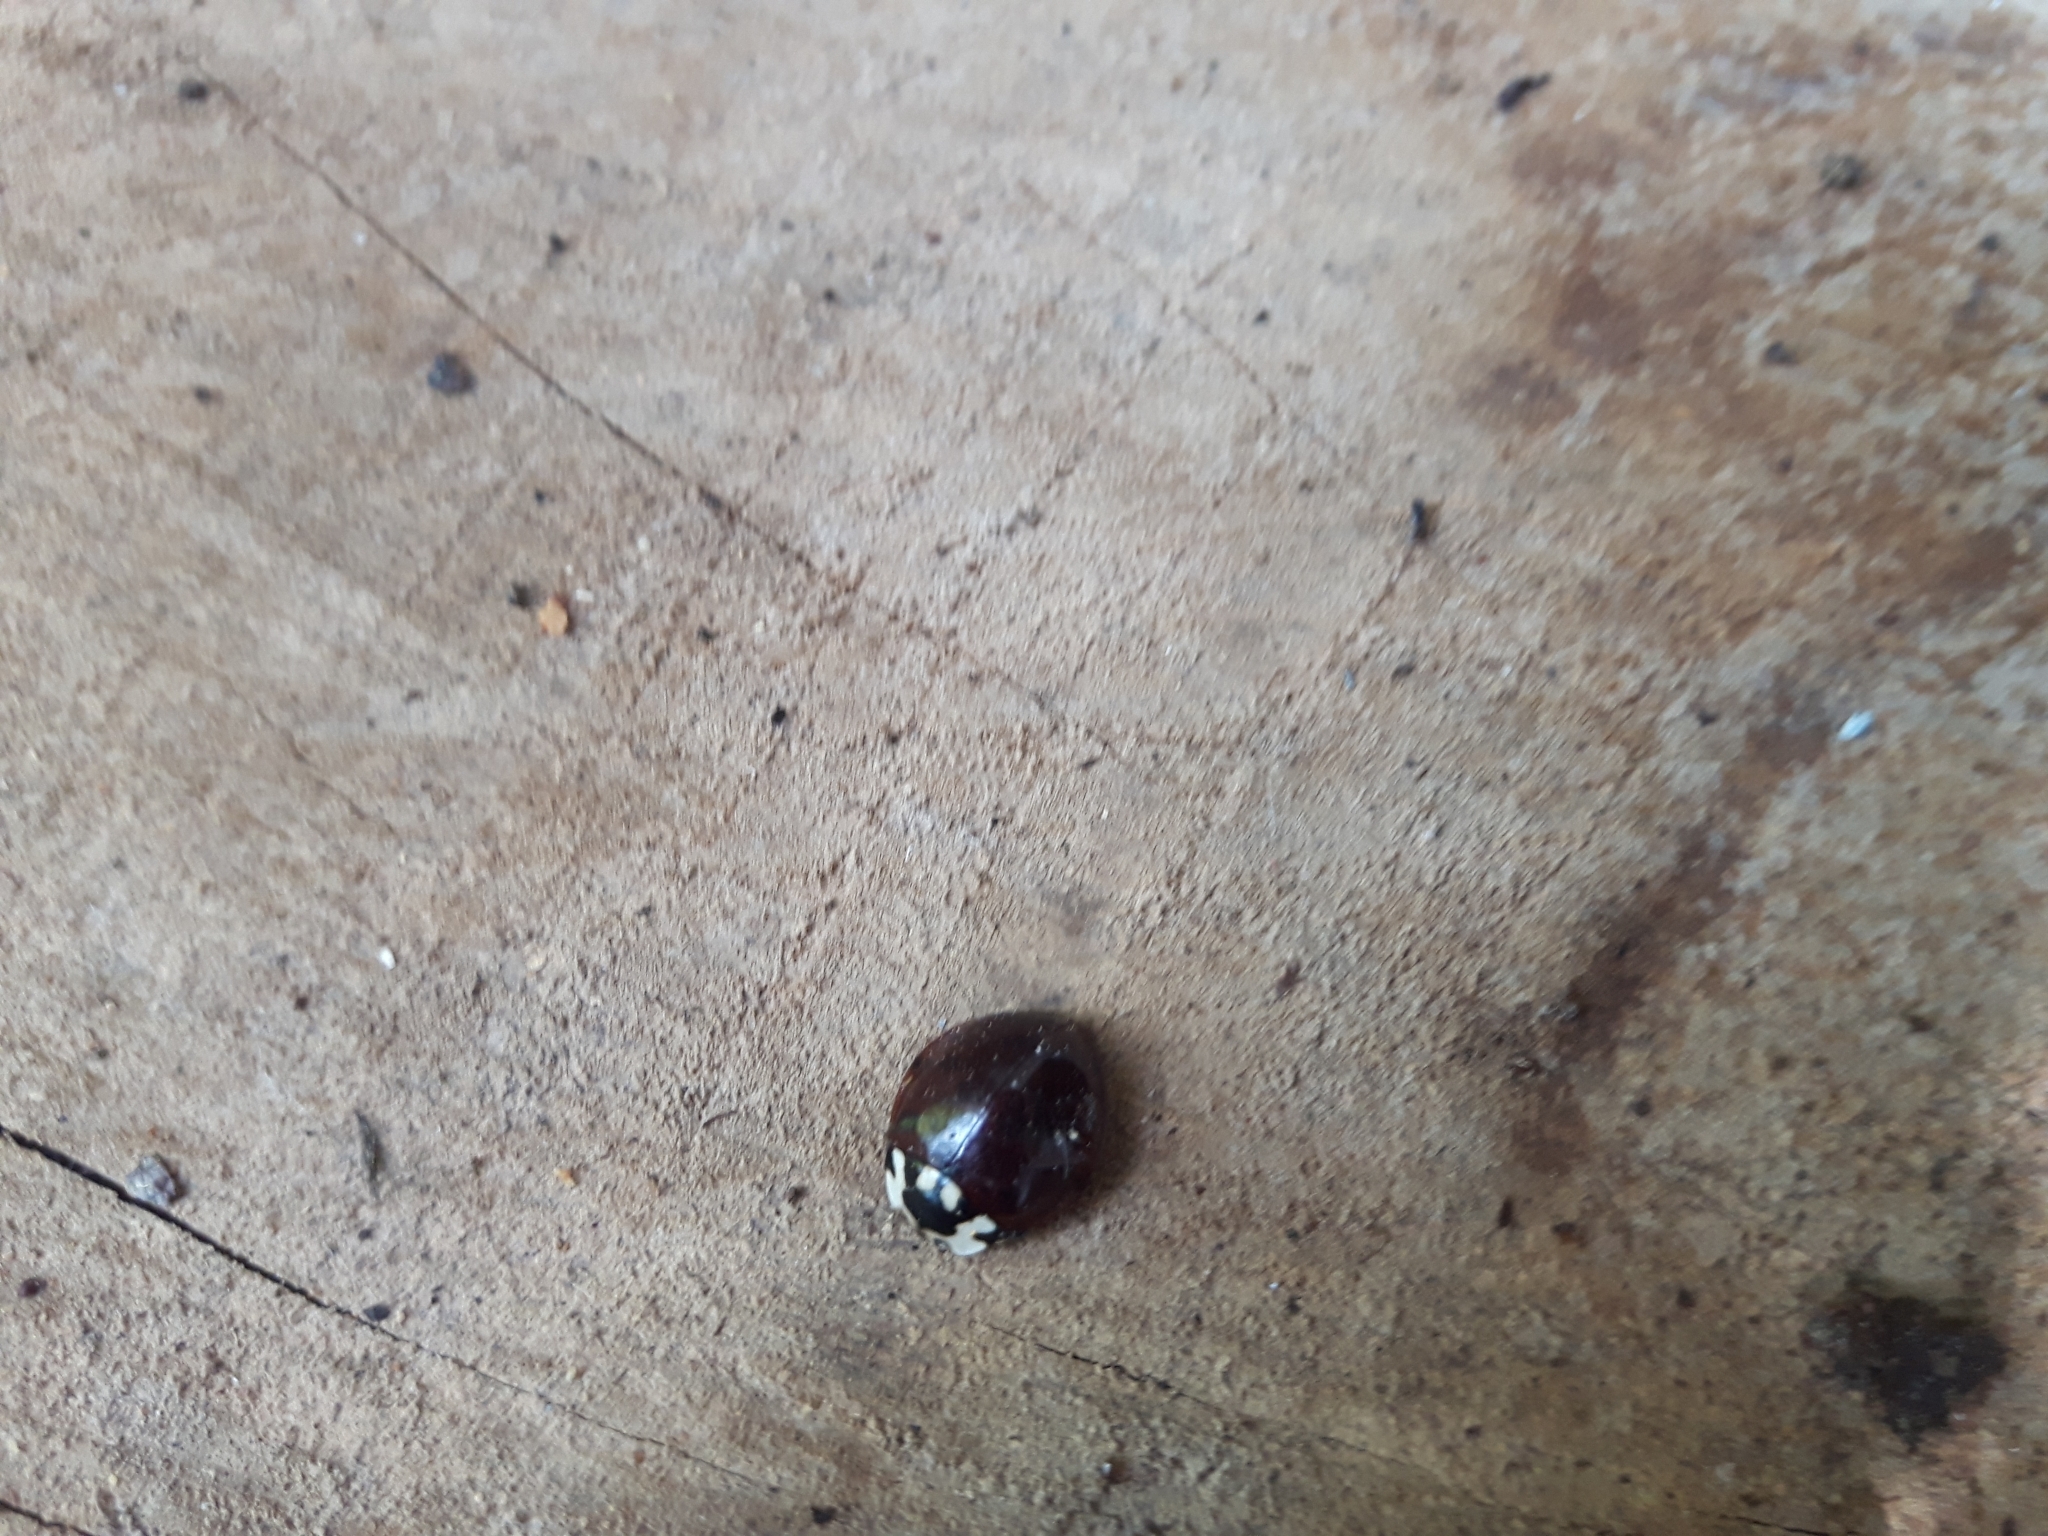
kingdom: Animalia
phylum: Arthropoda
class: Insecta
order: Coleoptera
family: Coccinellidae
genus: Anatis
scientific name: Anatis labiculata
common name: Fifteen-spotted lady beetle
